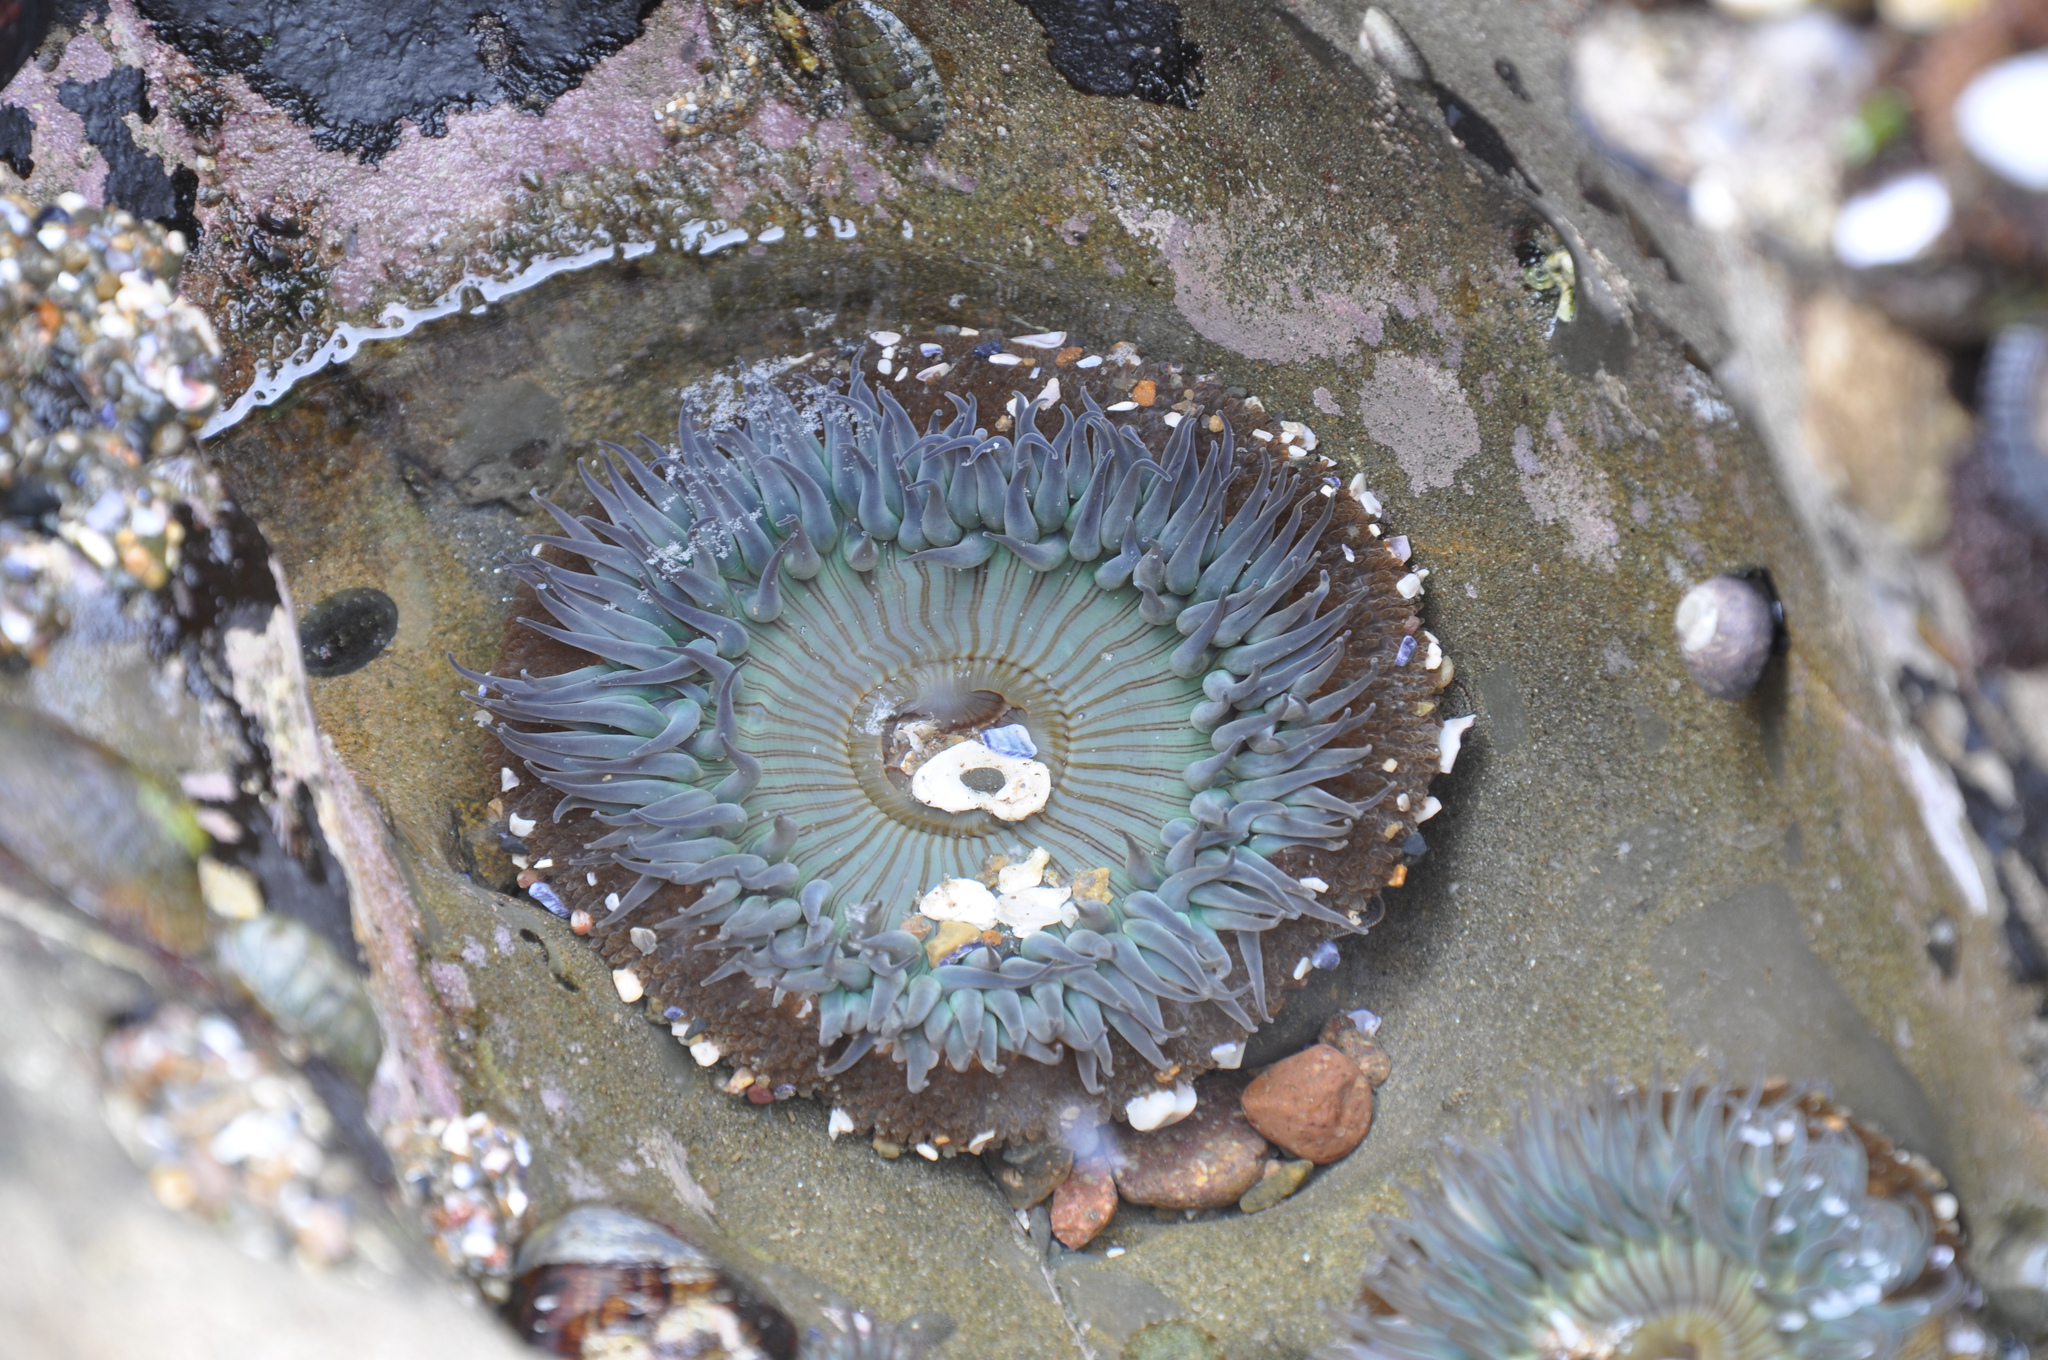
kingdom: Animalia
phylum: Cnidaria
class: Anthozoa
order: Actiniaria
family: Actiniidae
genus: Anthopleura
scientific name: Anthopleura sola
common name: Sun anemone
